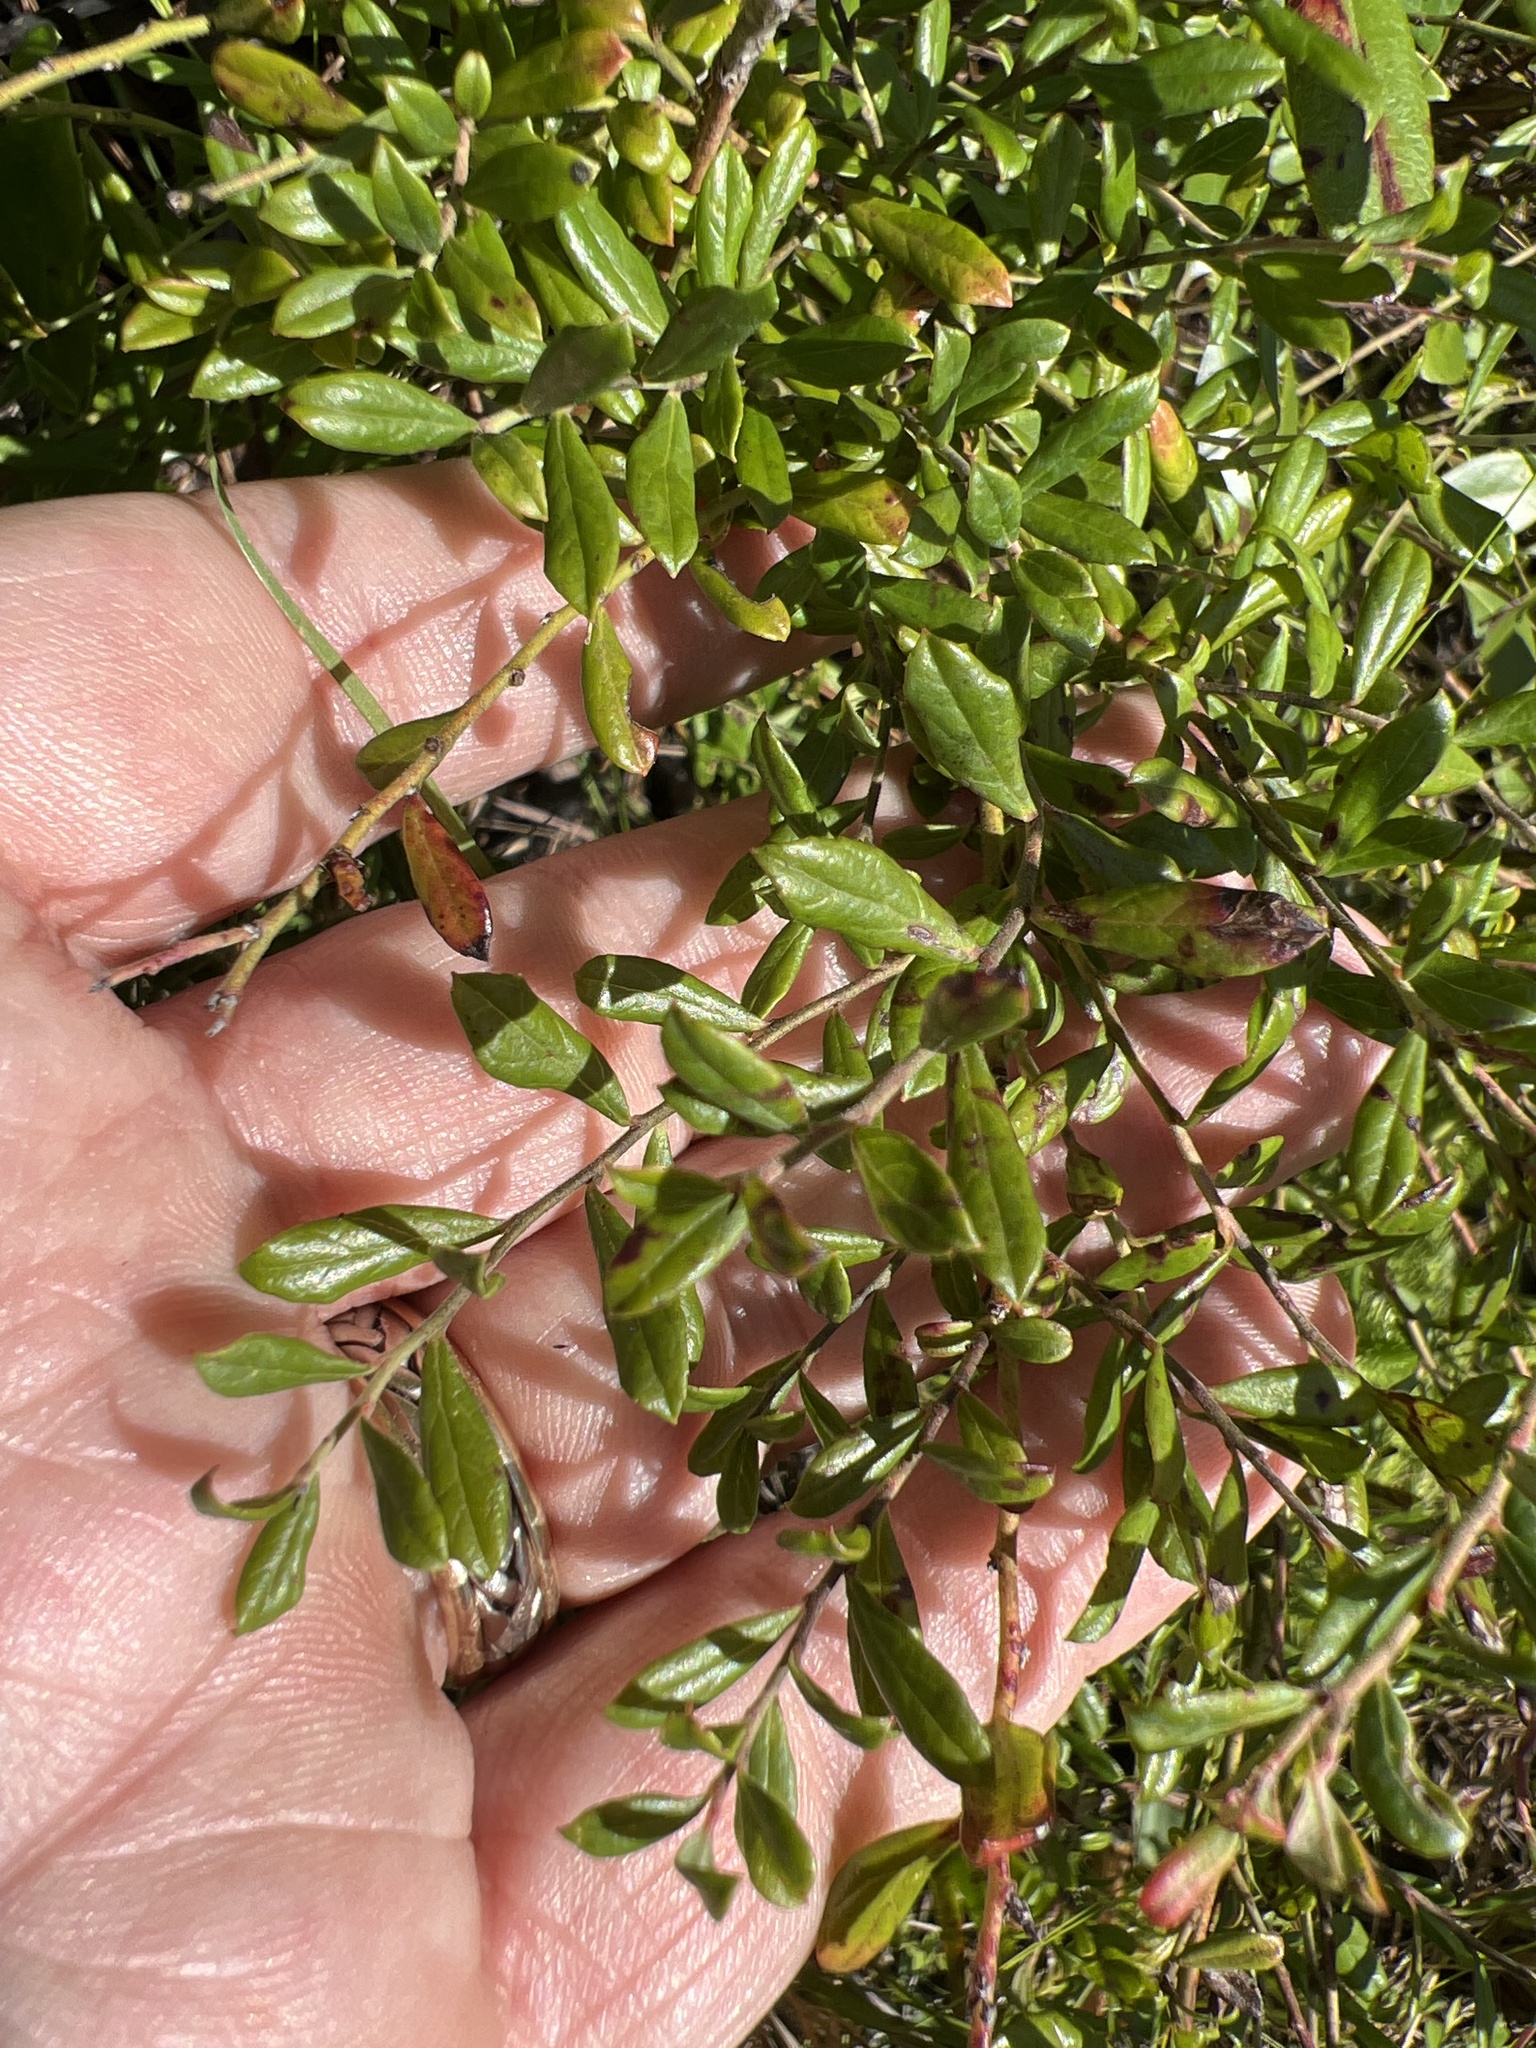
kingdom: Plantae
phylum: Tracheophyta
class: Magnoliopsida
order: Ericales
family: Ericaceae
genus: Vaccinium
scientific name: Vaccinium myrsinites
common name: Evergreen blueberry
